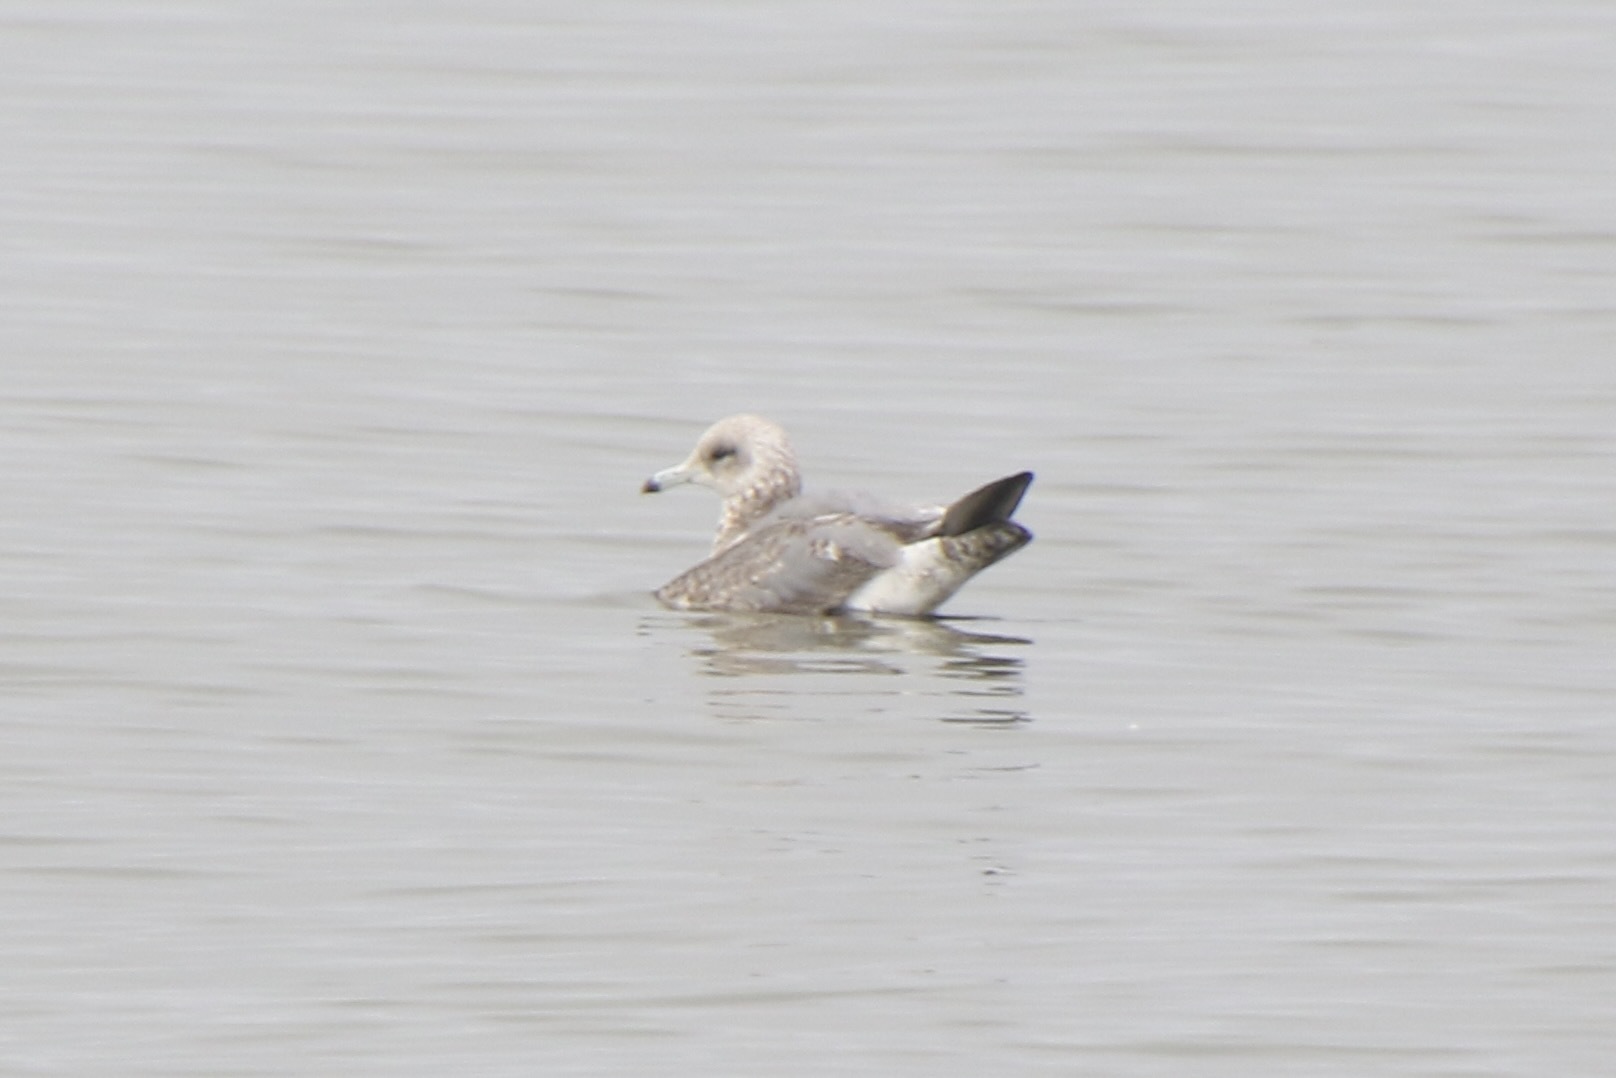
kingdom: Animalia
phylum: Chordata
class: Aves
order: Charadriiformes
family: Laridae
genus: Larus
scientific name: Larus californicus
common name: California gull
